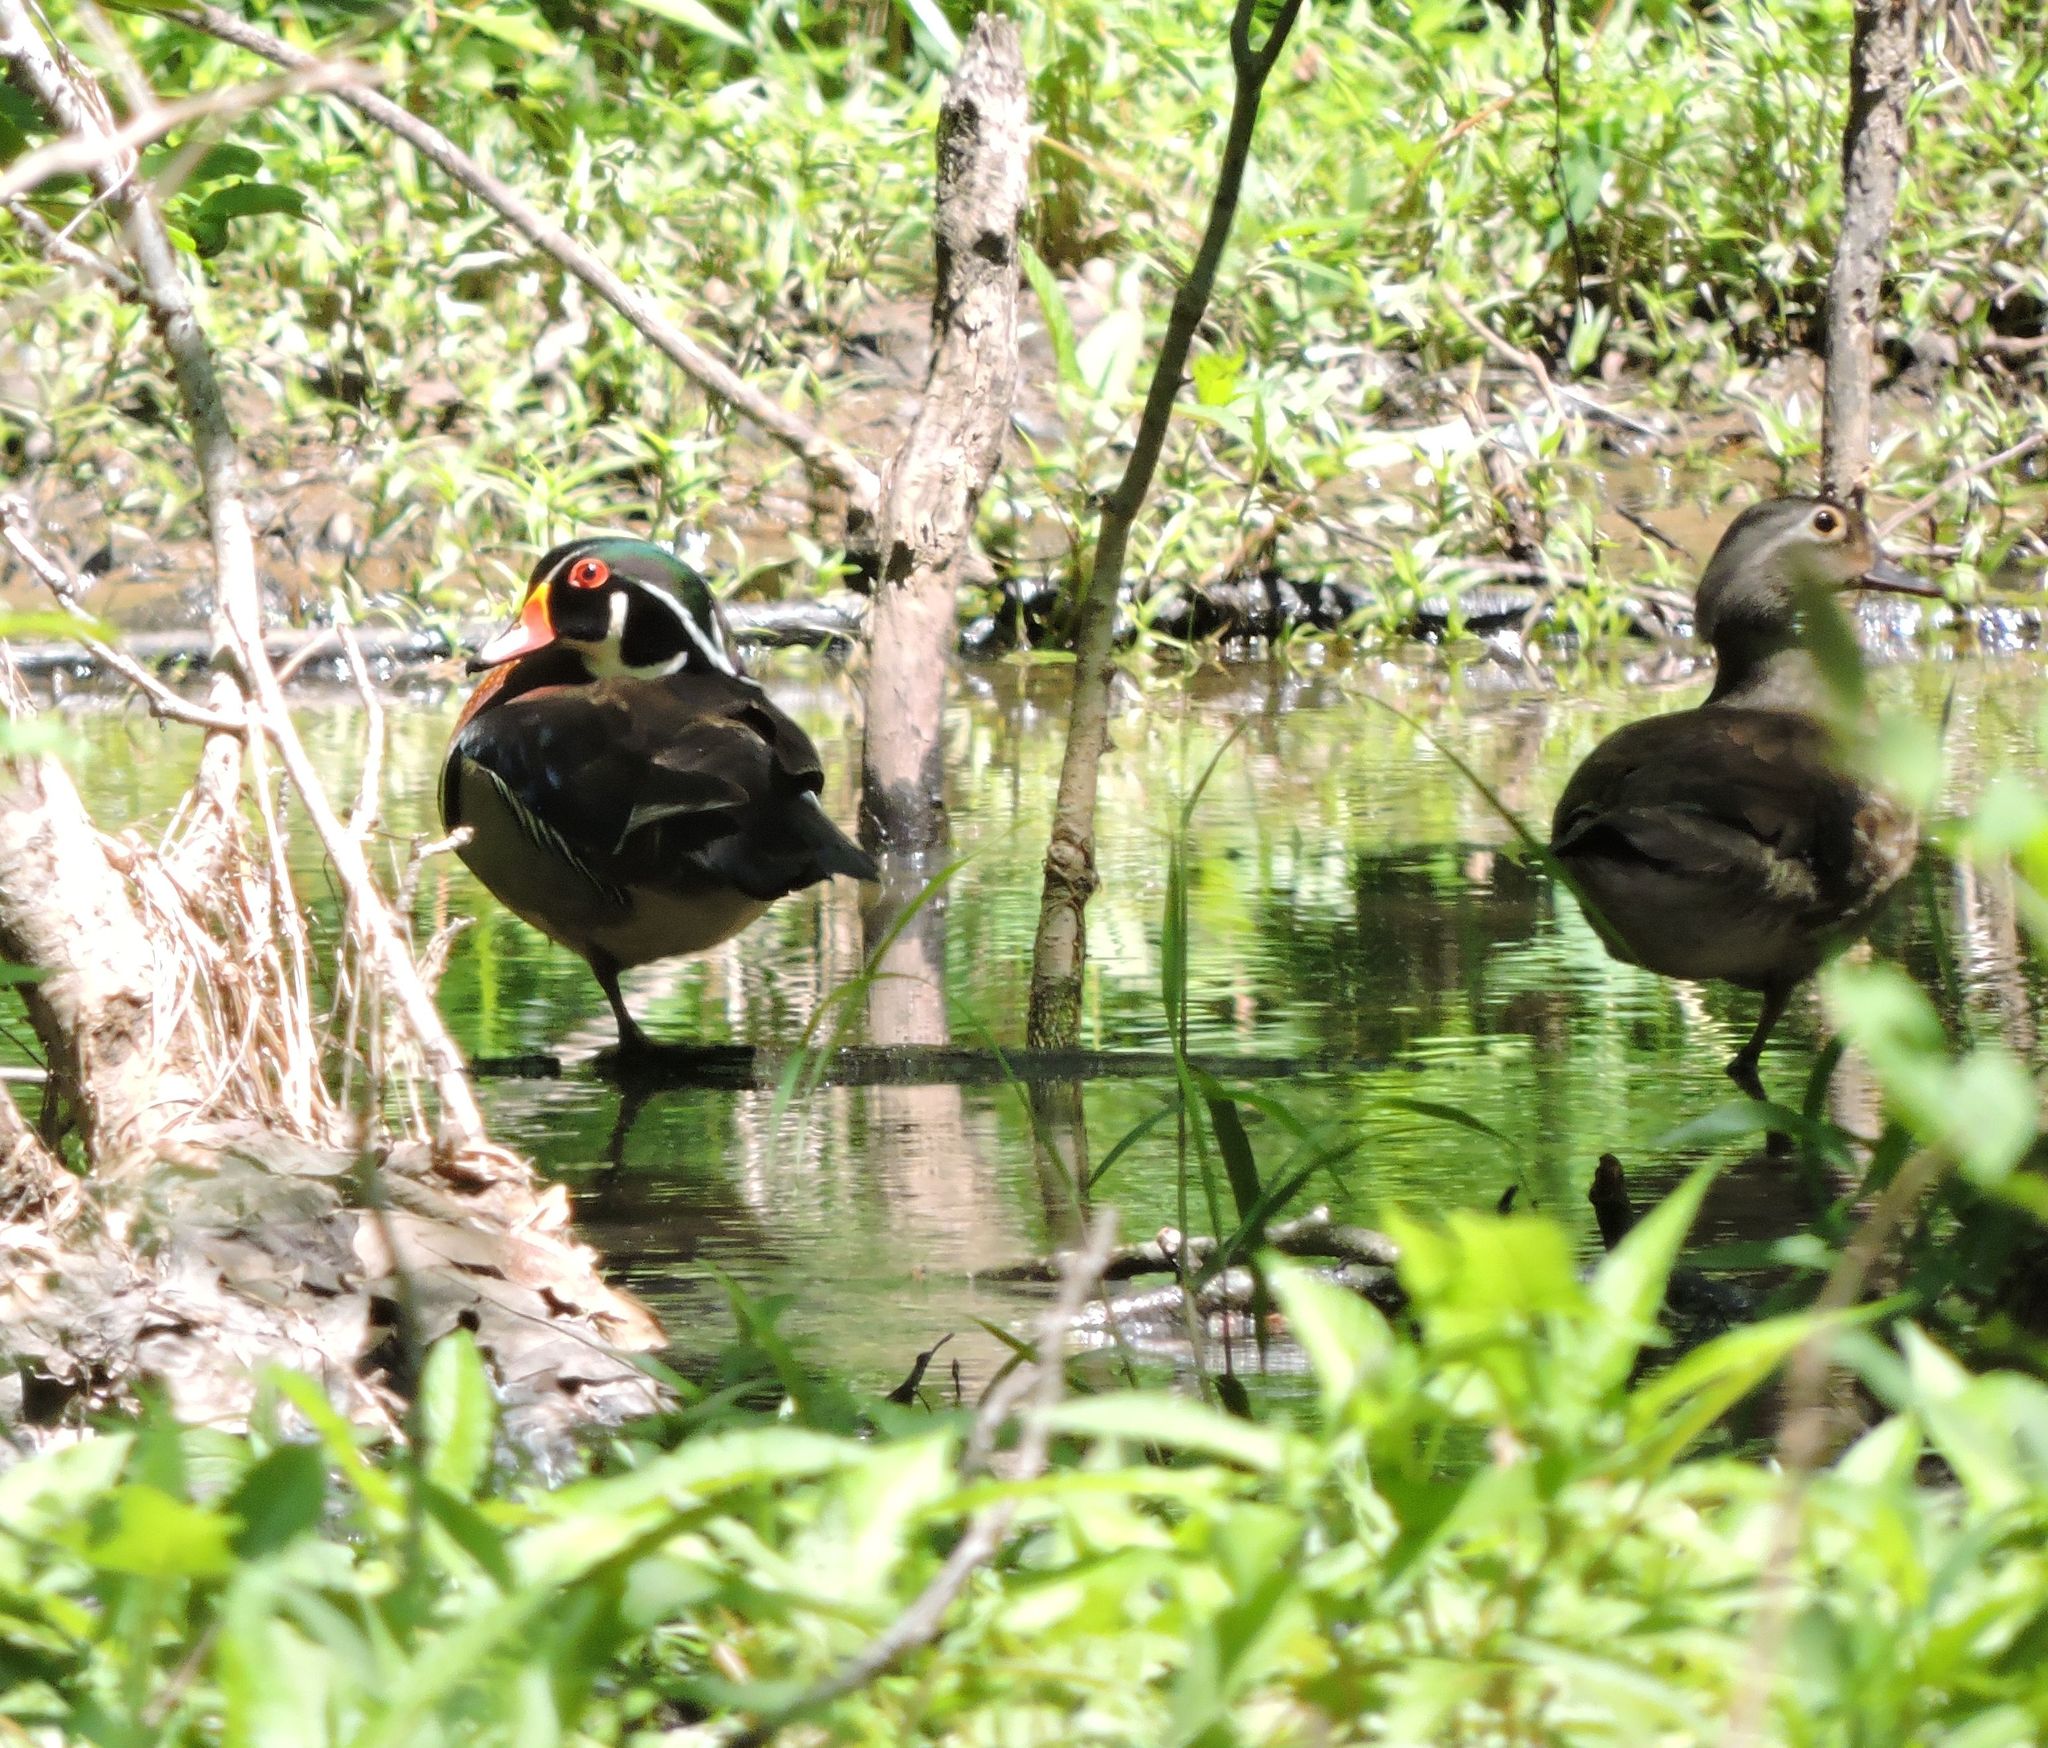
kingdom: Animalia
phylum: Chordata
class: Aves
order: Anseriformes
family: Anatidae
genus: Aix
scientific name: Aix sponsa
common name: Wood duck
